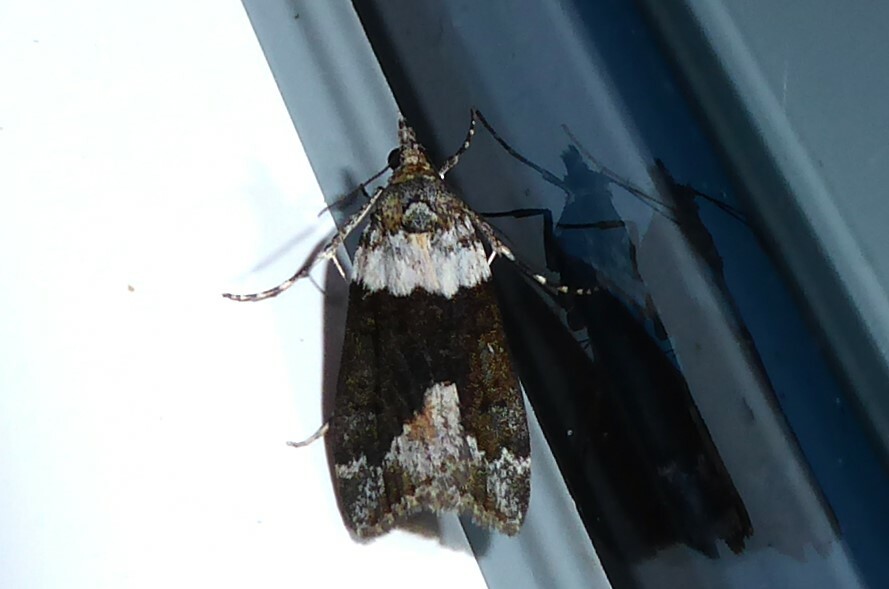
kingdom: Animalia
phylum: Arthropoda
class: Insecta
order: Lepidoptera
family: Crambidae
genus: Eudonia
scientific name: Eudonia submarginalis
